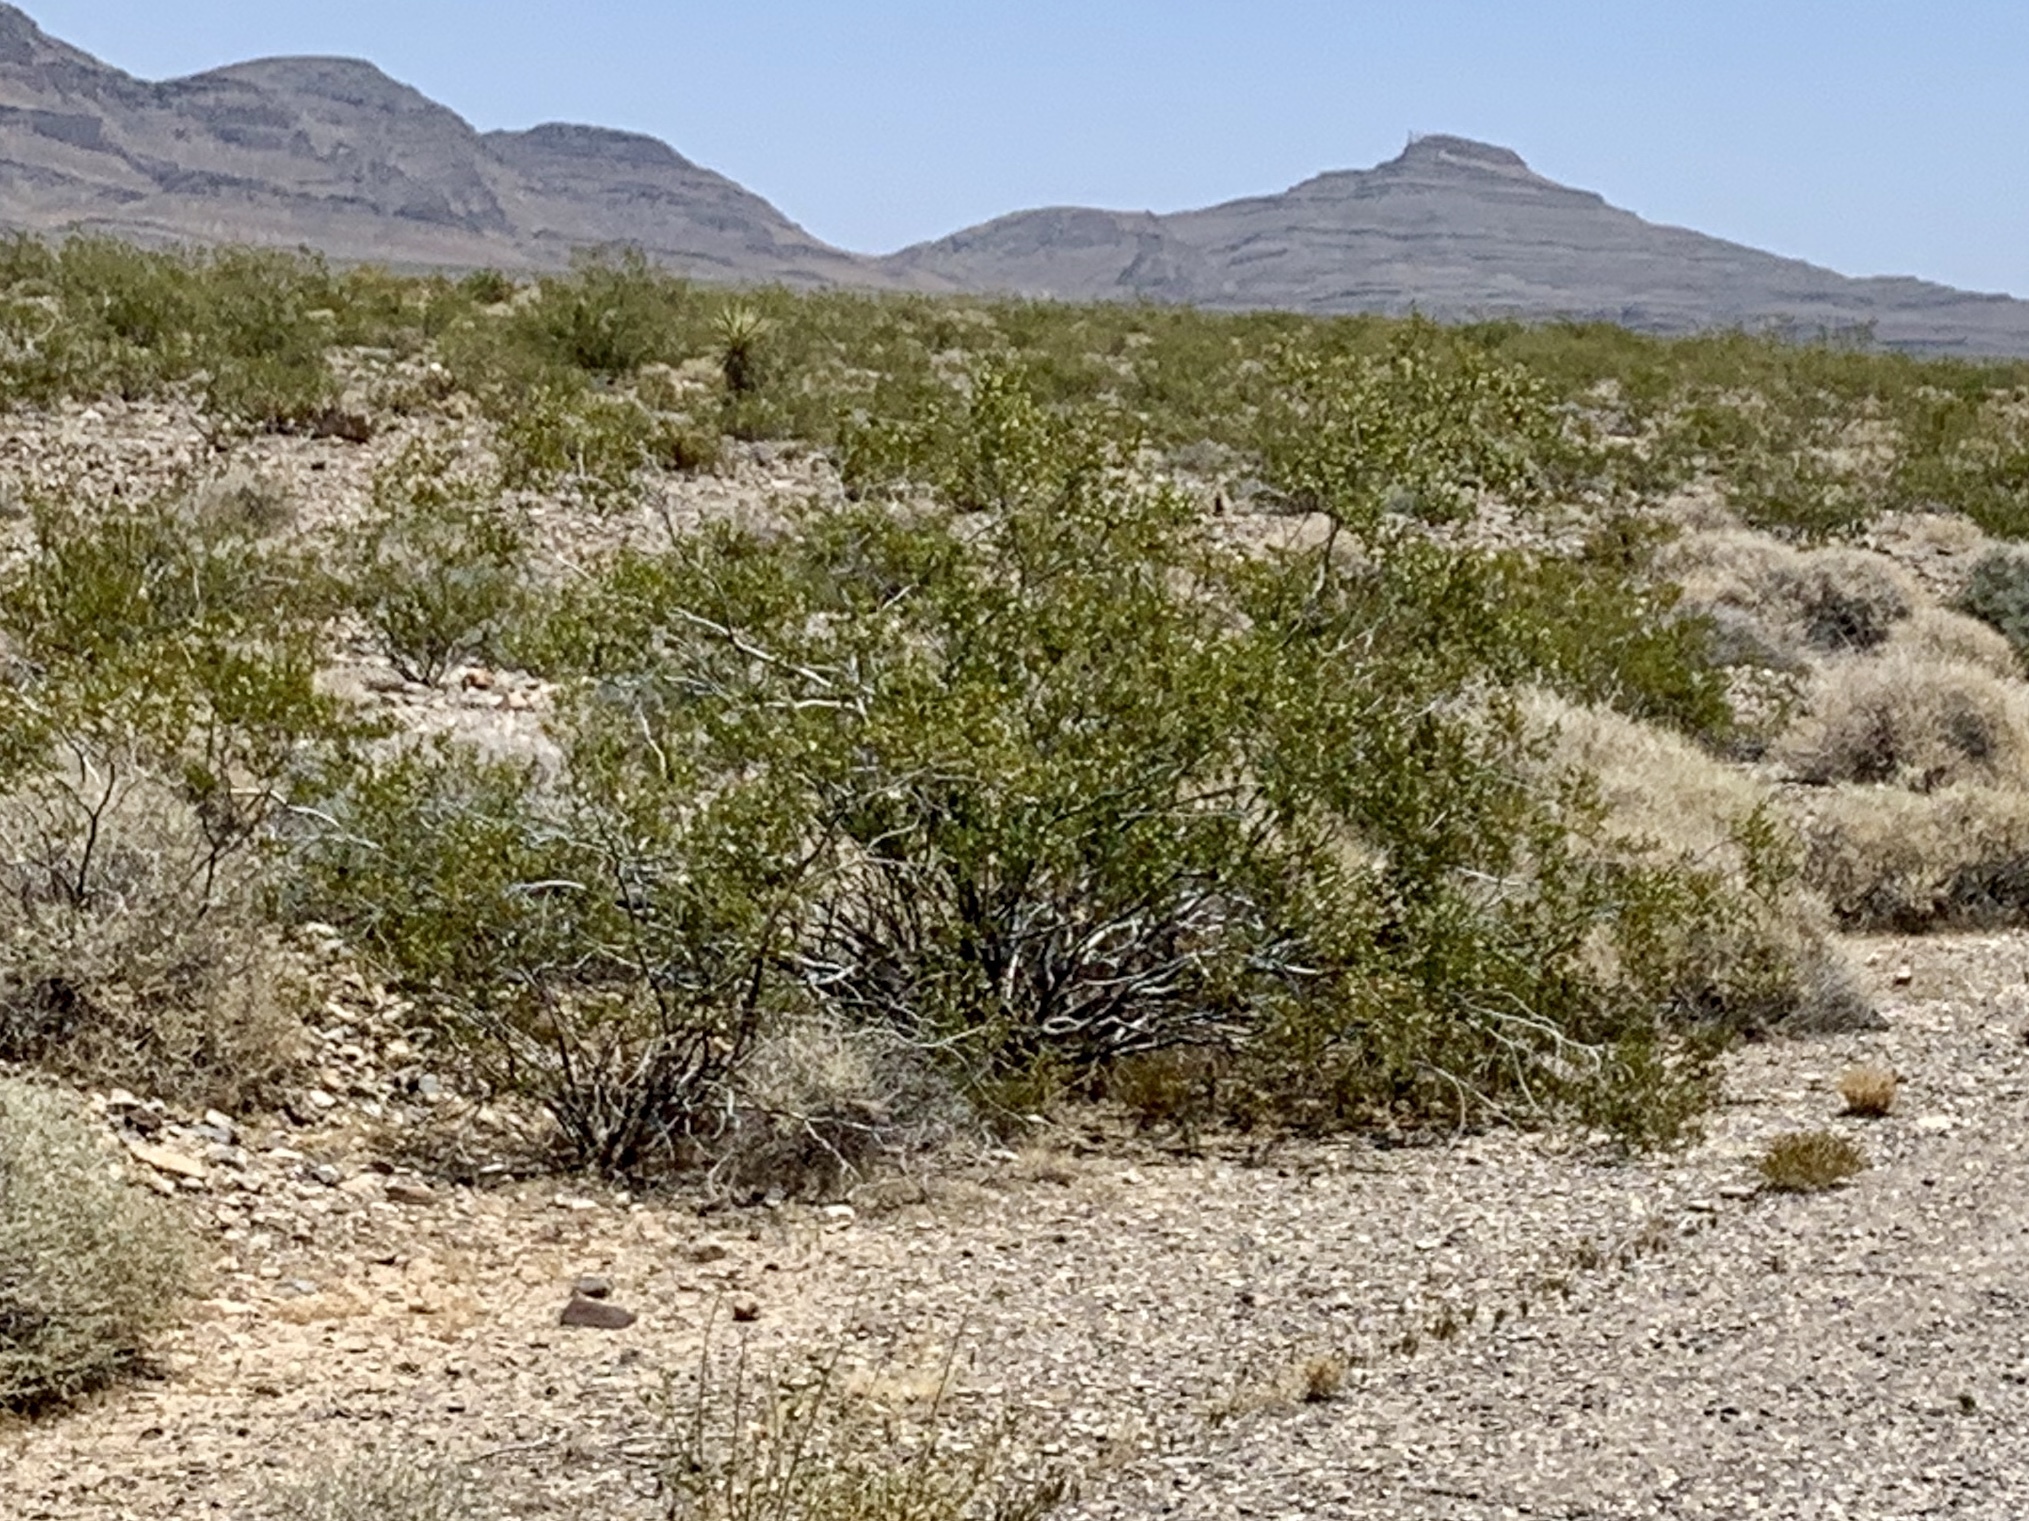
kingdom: Plantae
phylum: Tracheophyta
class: Magnoliopsida
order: Zygophyllales
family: Zygophyllaceae
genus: Larrea
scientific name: Larrea tridentata
